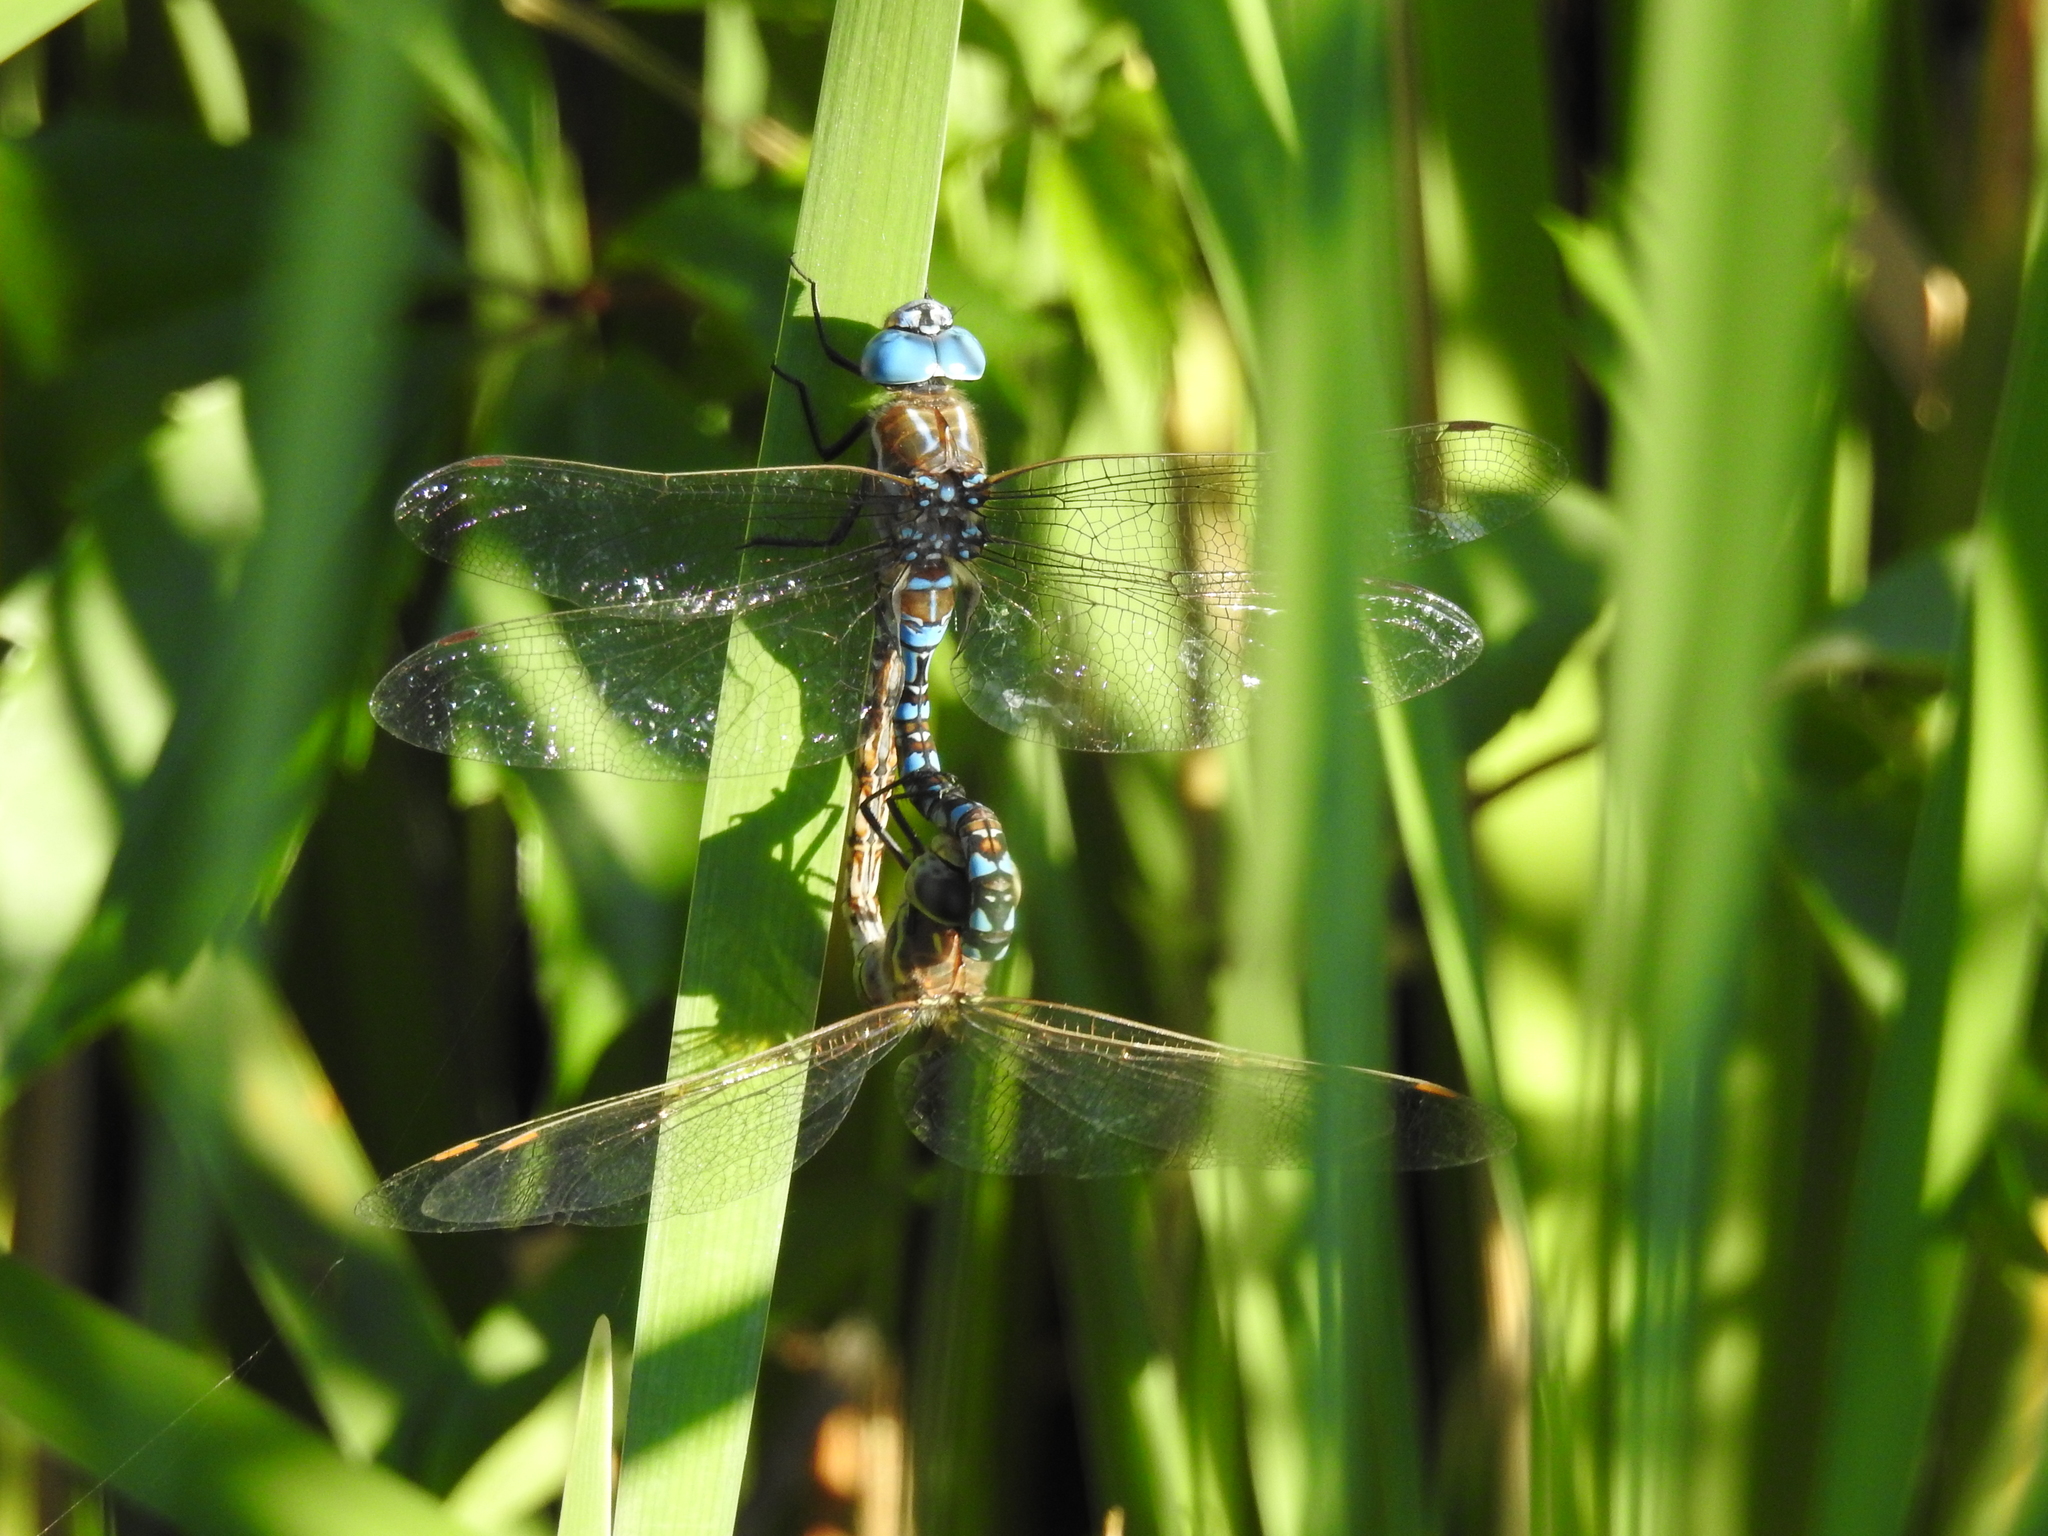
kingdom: Animalia
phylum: Arthropoda
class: Insecta
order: Odonata
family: Aeshnidae
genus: Rhionaeschna
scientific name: Rhionaeschna multicolor
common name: Blue-eyed darner
